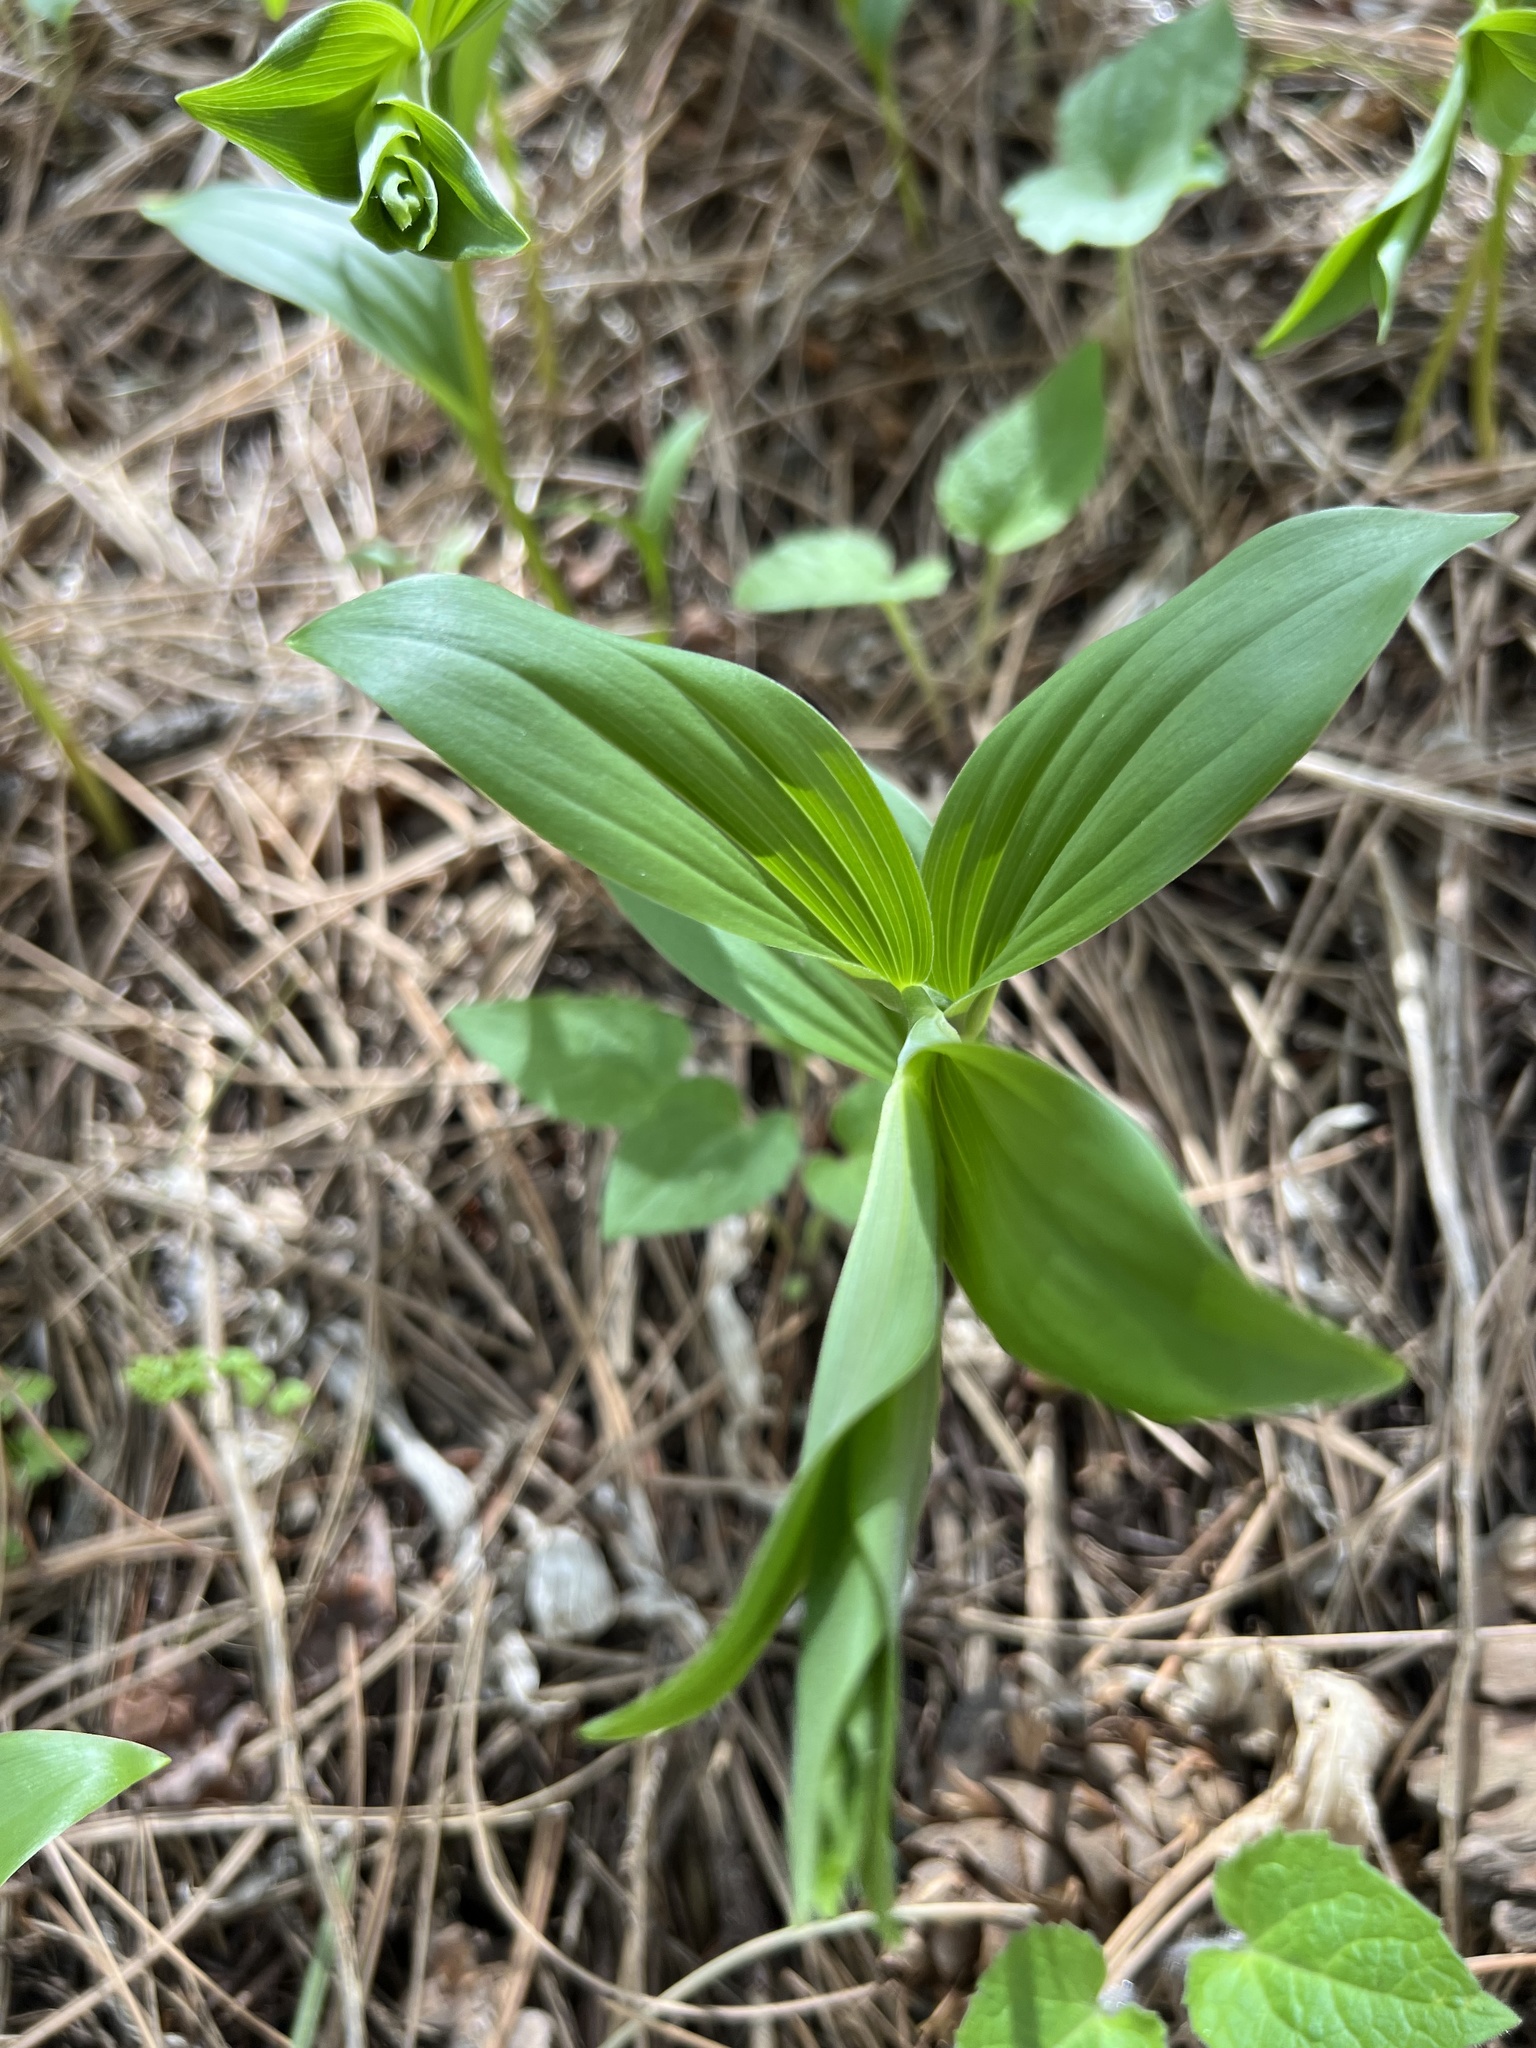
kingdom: Plantae
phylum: Tracheophyta
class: Liliopsida
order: Asparagales
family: Asparagaceae
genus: Maianthemum
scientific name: Maianthemum racemosum
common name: False spikenard
